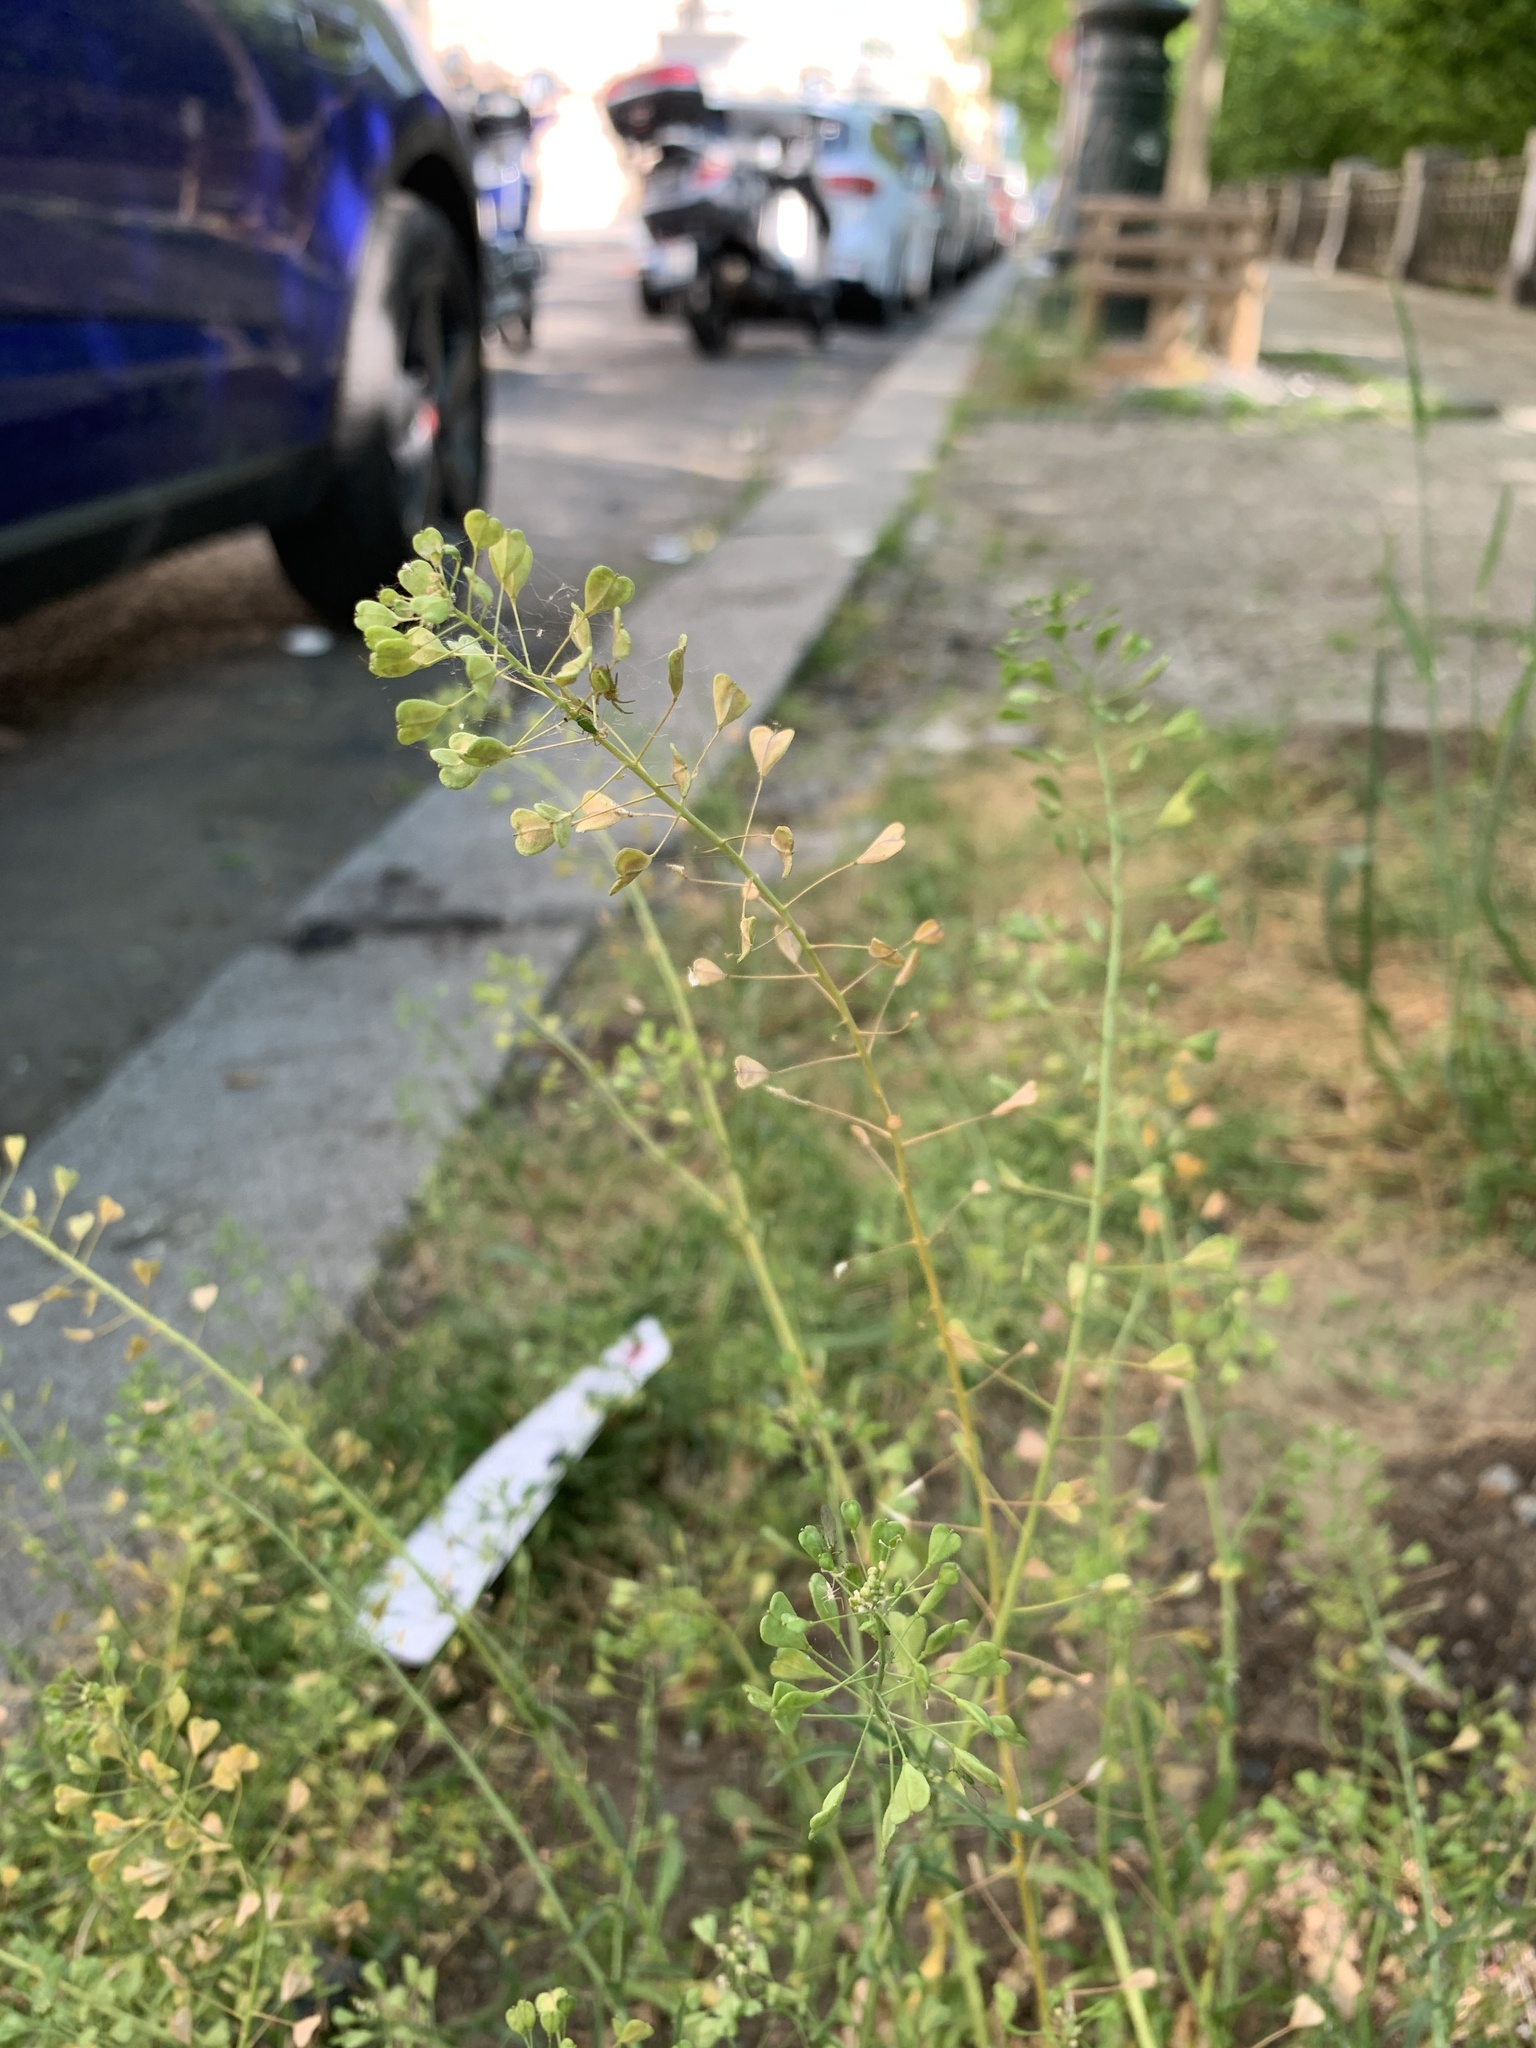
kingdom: Plantae
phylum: Tracheophyta
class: Magnoliopsida
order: Brassicales
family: Brassicaceae
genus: Capsella
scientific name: Capsella bursa-pastoris
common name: Shepherd's purse
